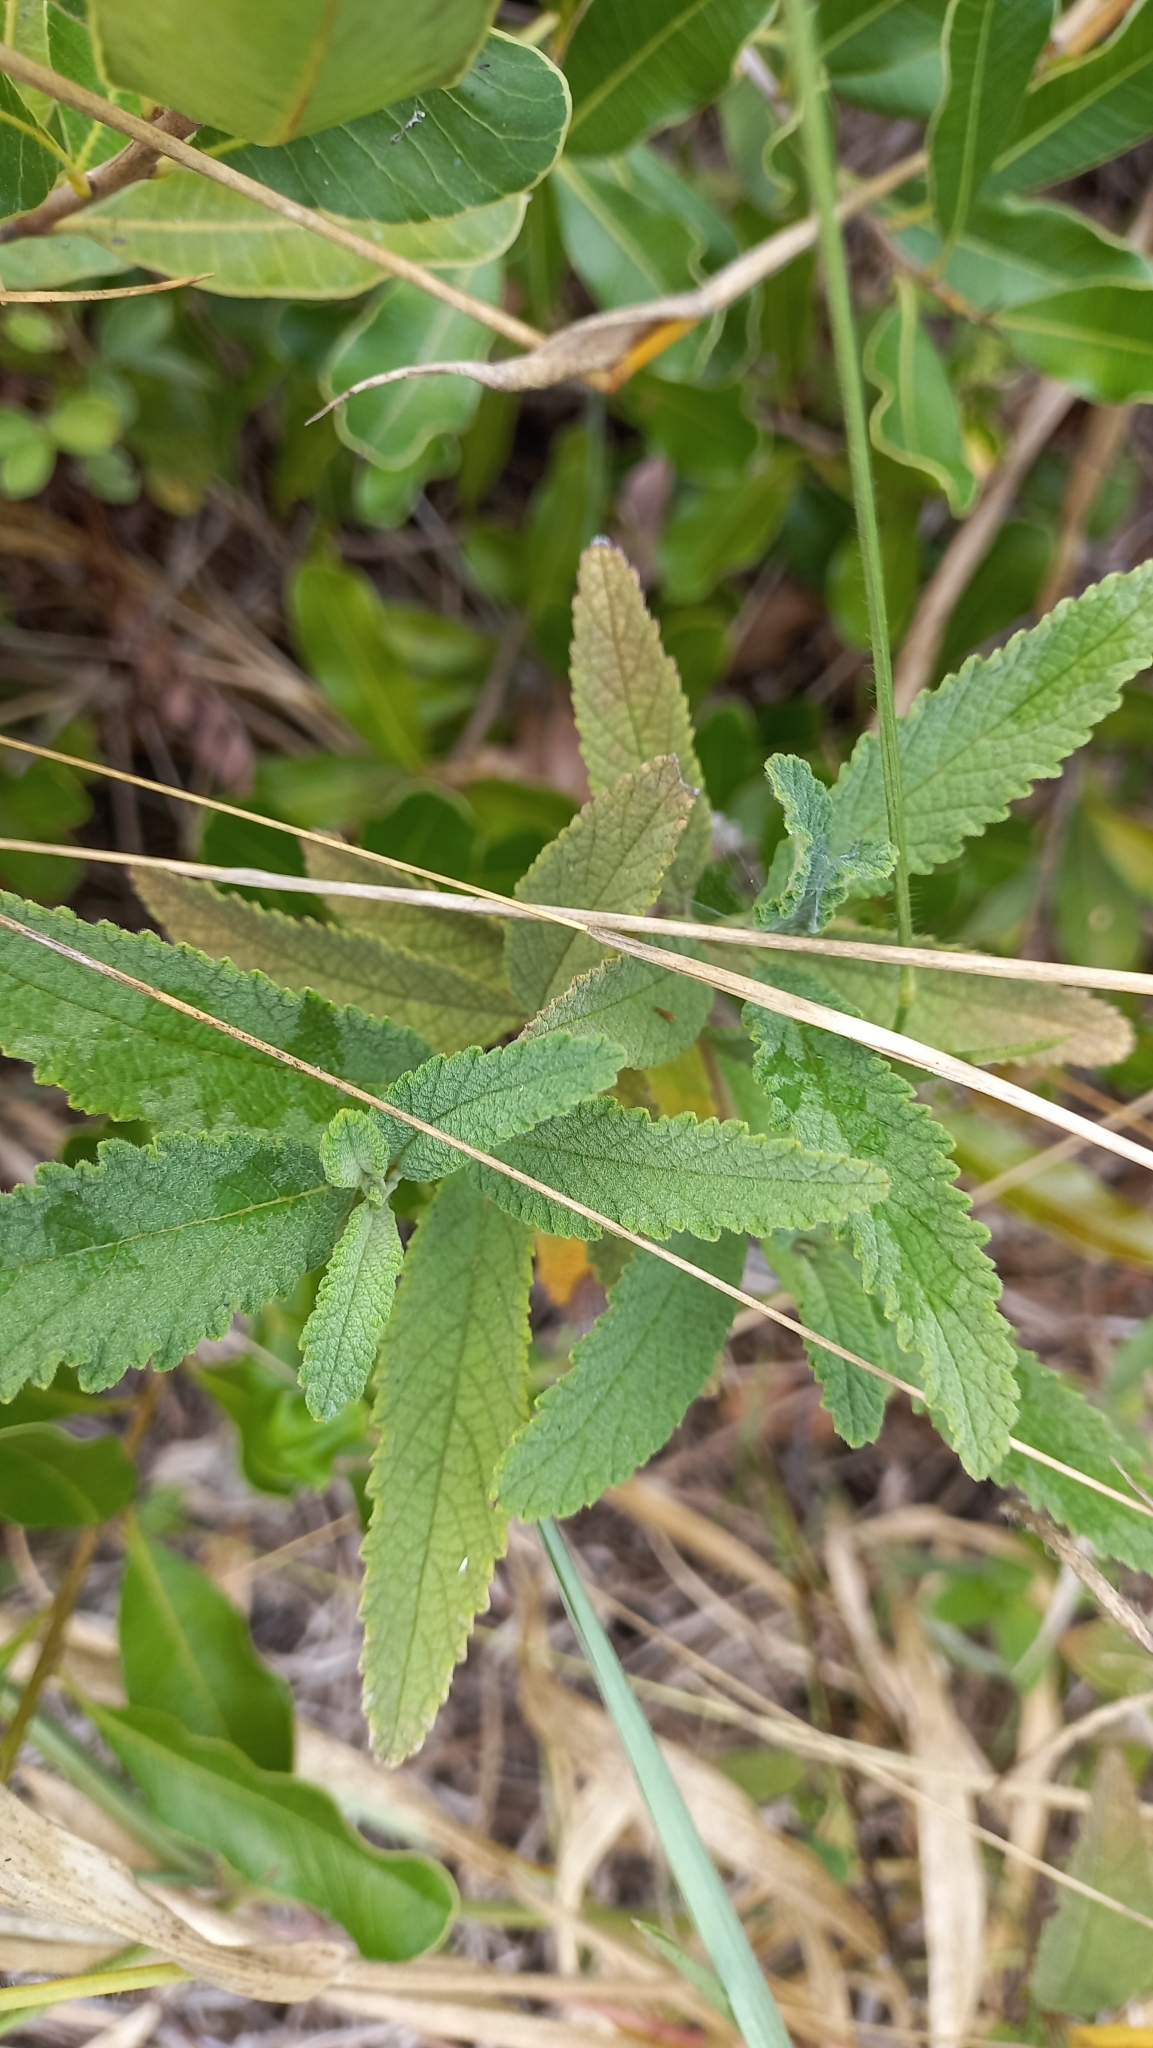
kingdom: Plantae
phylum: Tracheophyta
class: Magnoliopsida
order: Boraginales
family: Cordiaceae
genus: Varronia
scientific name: Varronia curassavica
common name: Black sage
